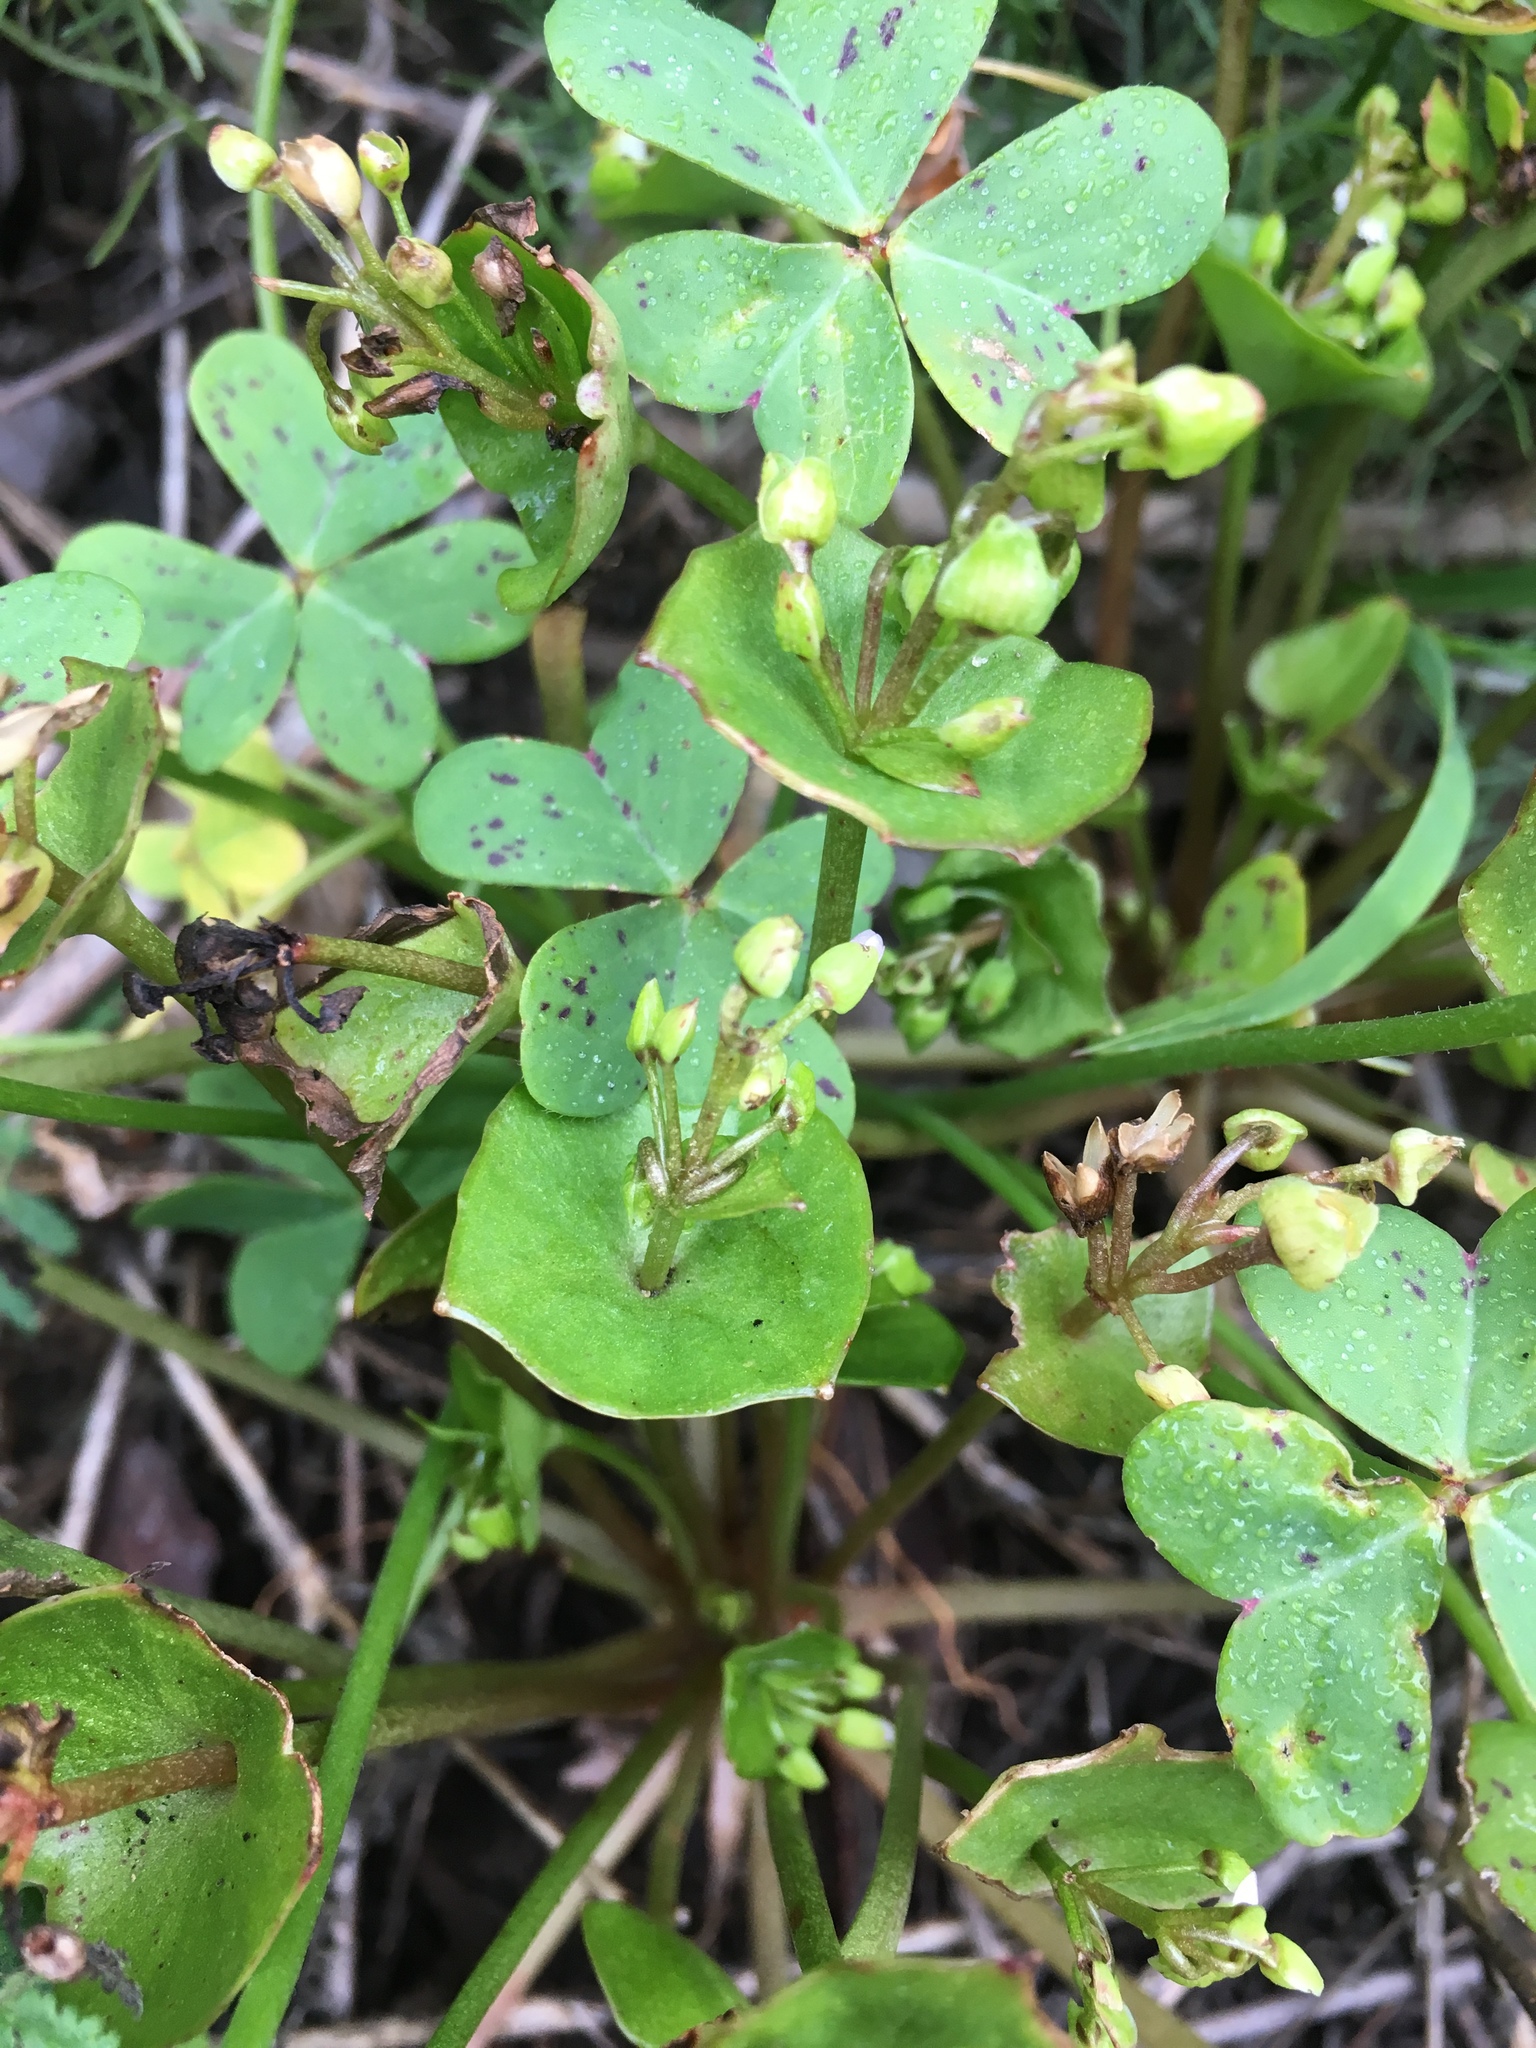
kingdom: Plantae
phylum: Tracheophyta
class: Magnoliopsida
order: Caryophyllales
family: Montiaceae
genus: Claytonia
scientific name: Claytonia perfoliata
